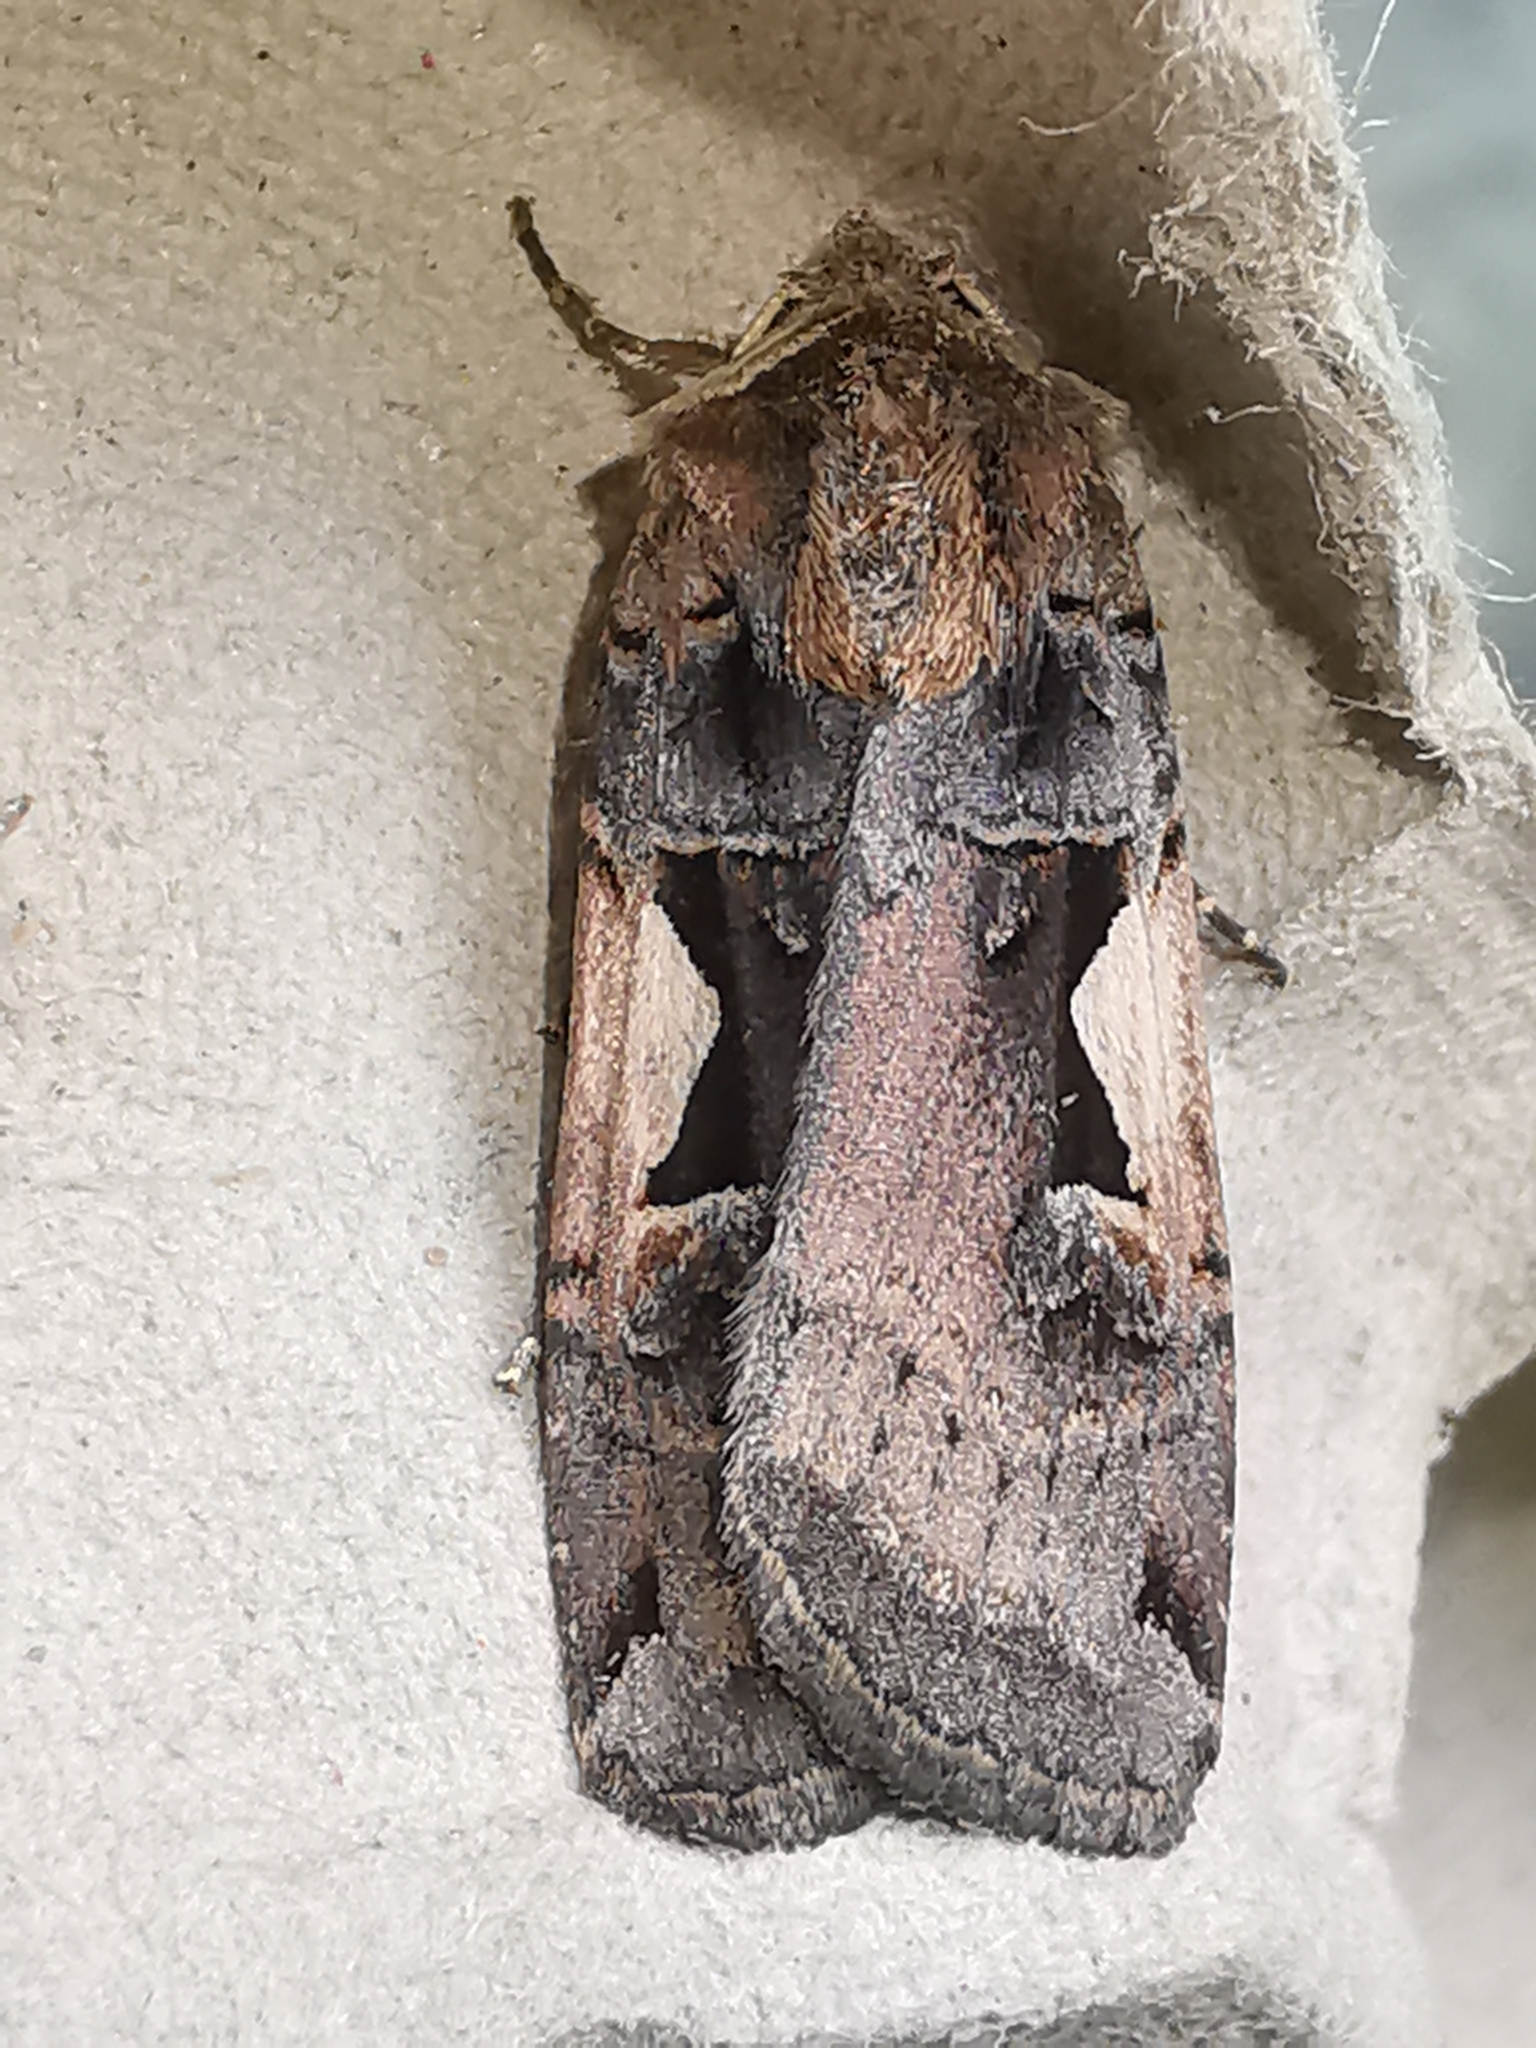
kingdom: Animalia
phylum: Arthropoda
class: Insecta
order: Lepidoptera
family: Noctuidae
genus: Xestia
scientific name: Xestia c-nigrum
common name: Setaceous hebrew character
